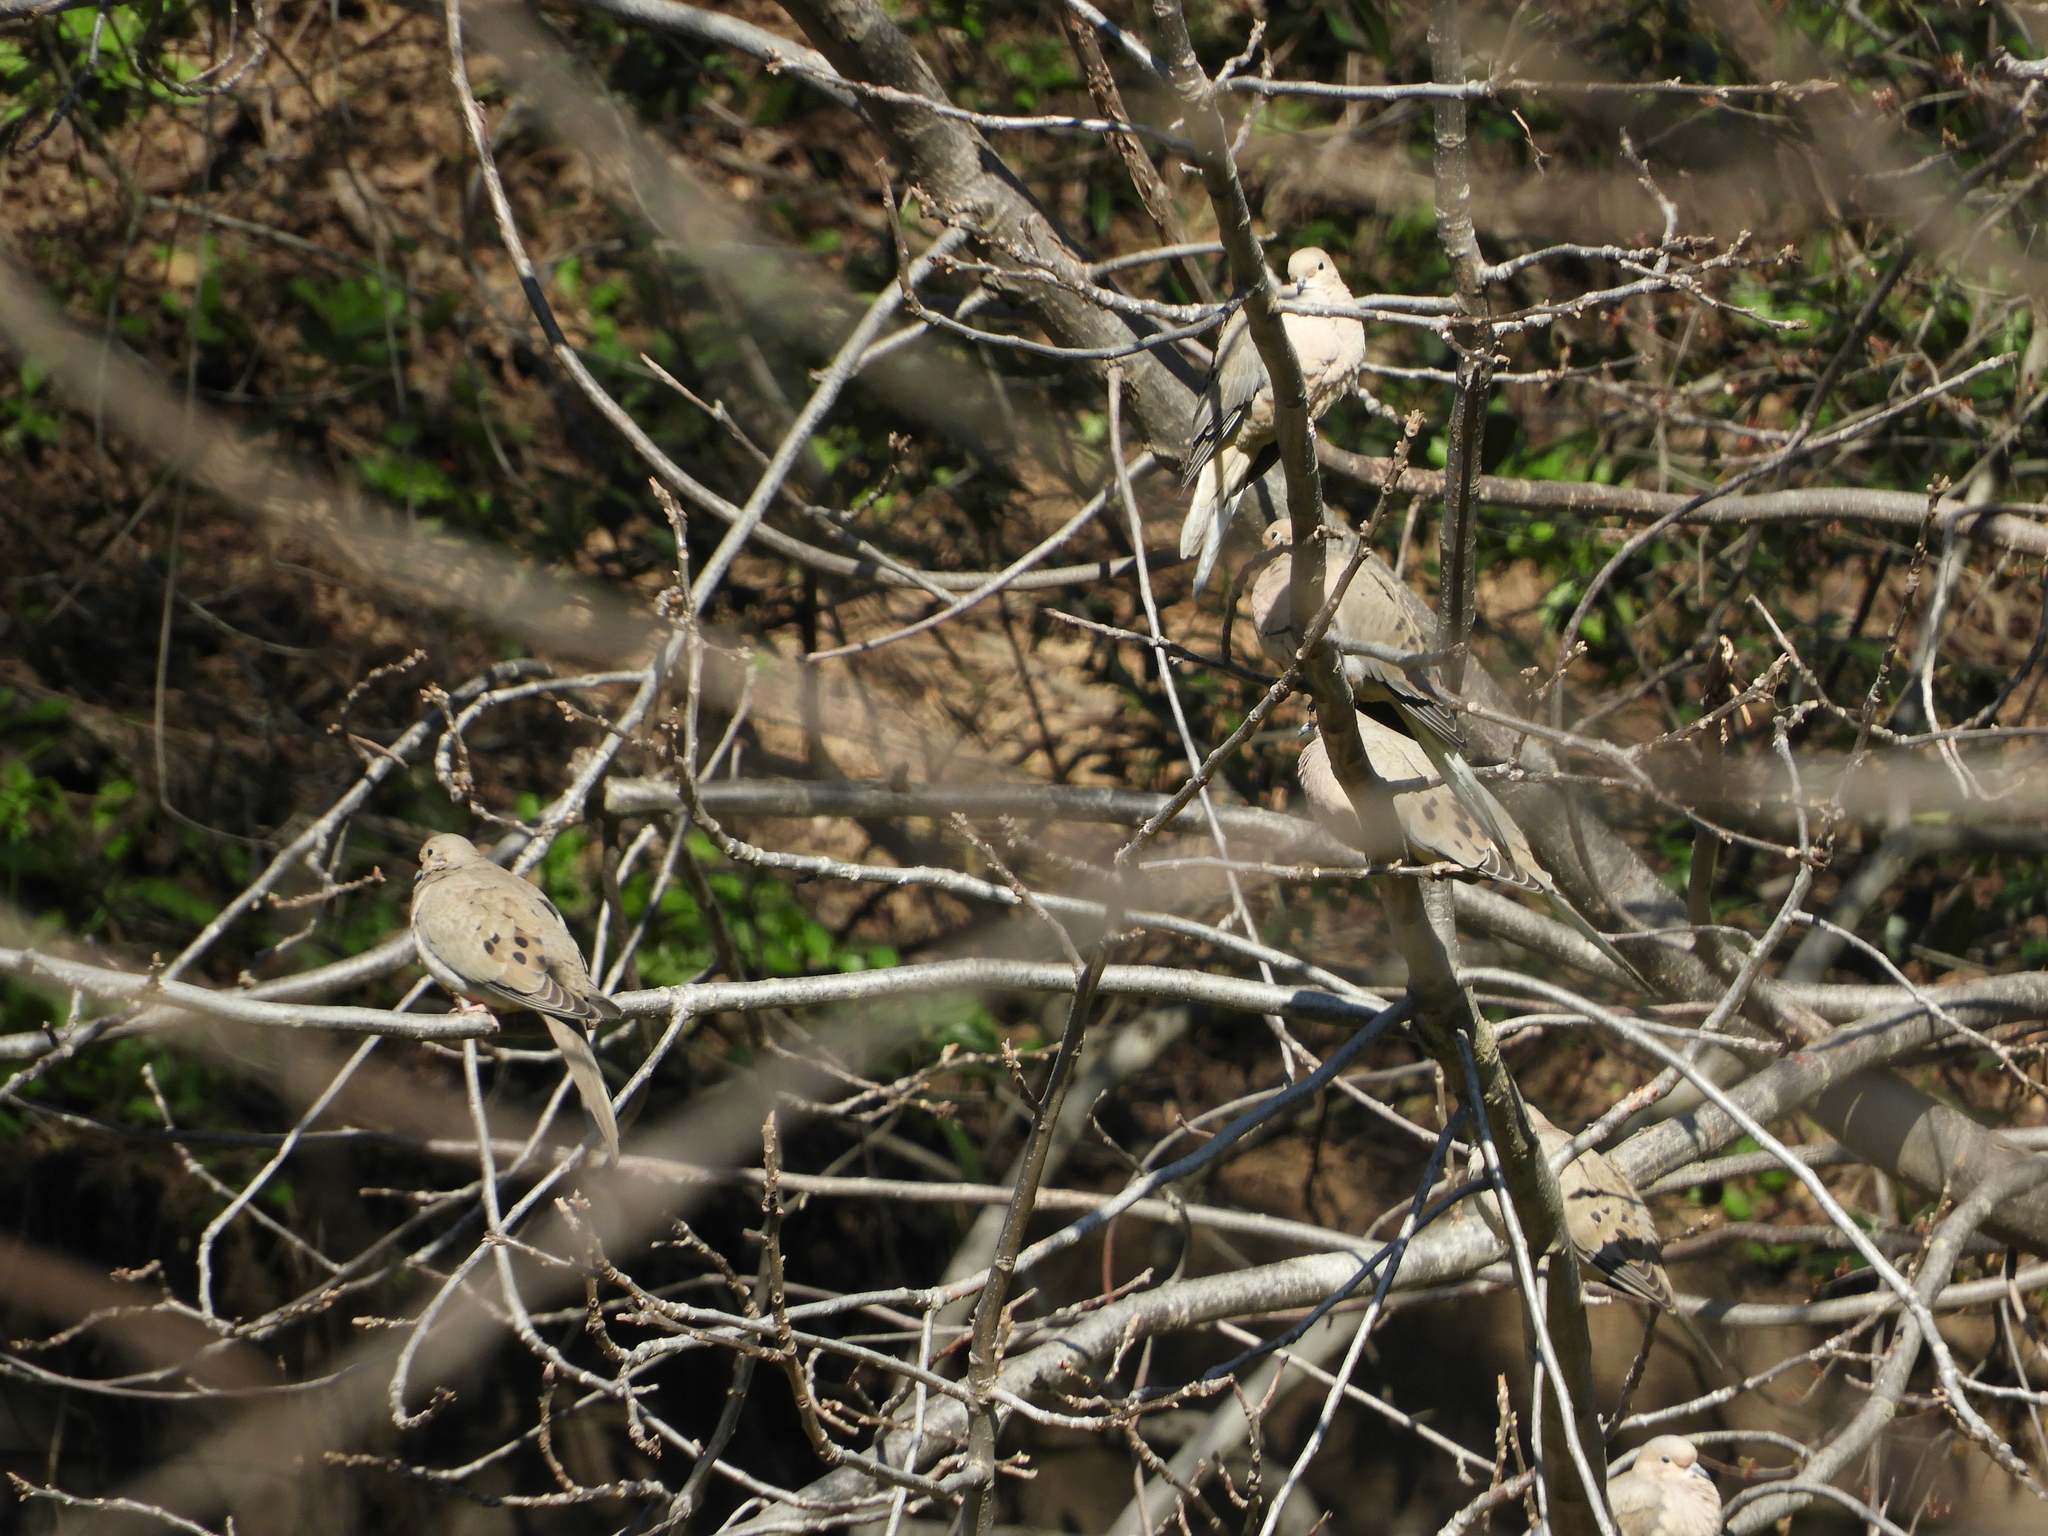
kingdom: Animalia
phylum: Chordata
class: Aves
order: Columbiformes
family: Columbidae
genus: Zenaida
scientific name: Zenaida macroura
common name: Mourning dove
